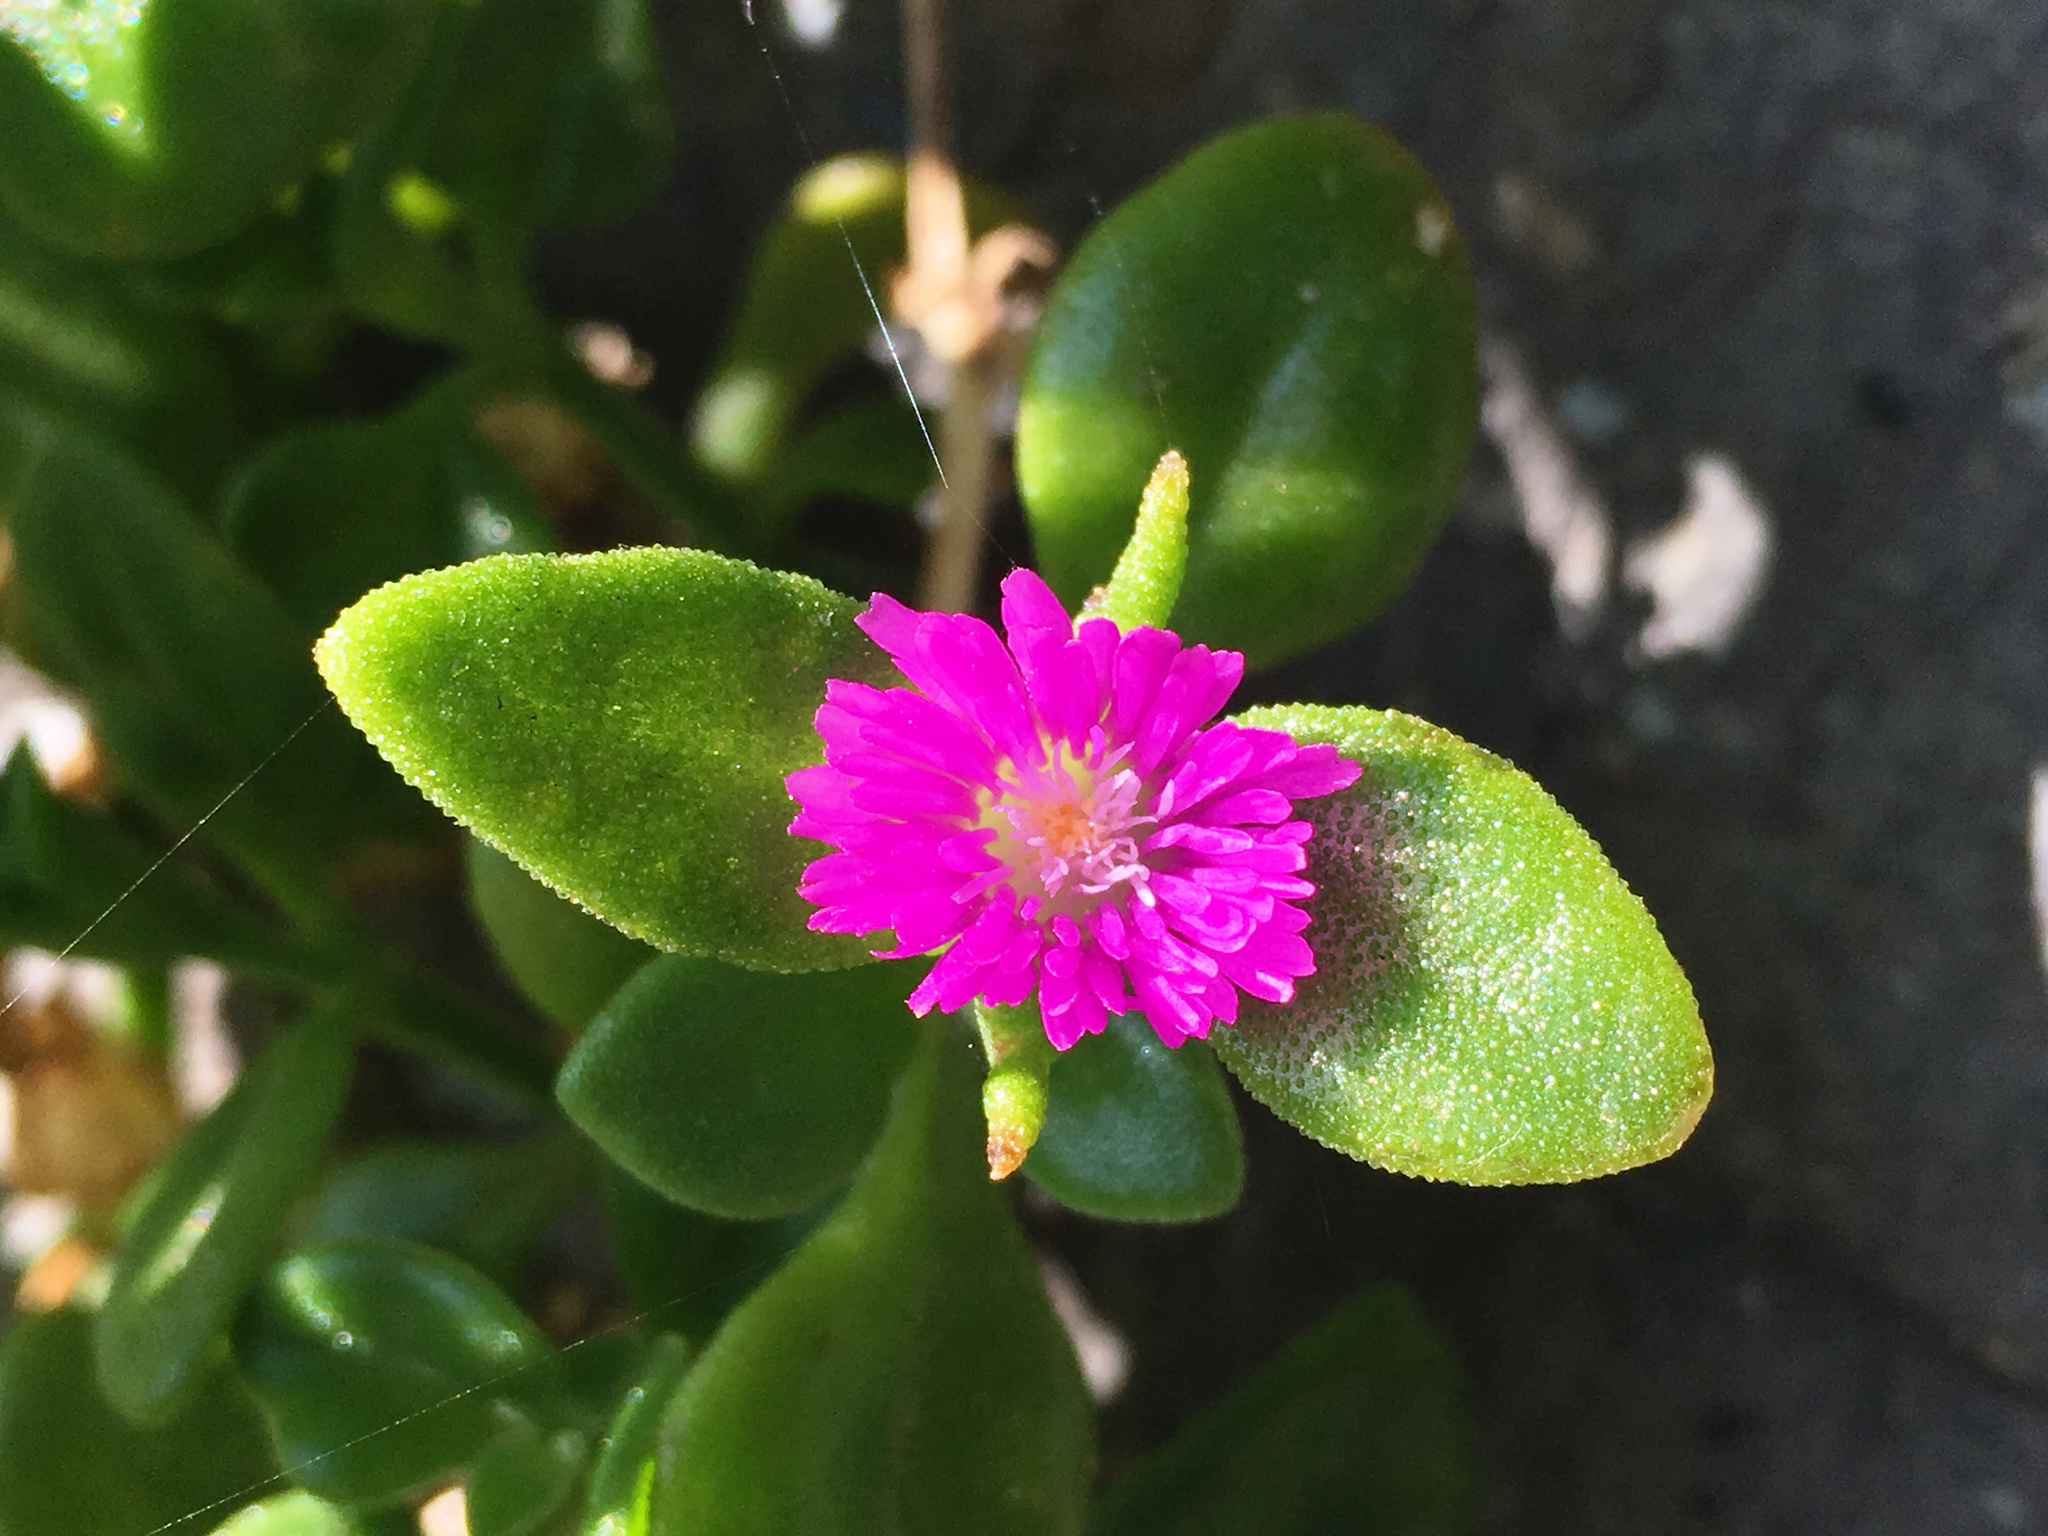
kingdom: Plantae
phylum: Tracheophyta
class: Magnoliopsida
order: Caryophyllales
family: Aizoaceae
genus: Mesembryanthemum
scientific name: Mesembryanthemum cordifolium
